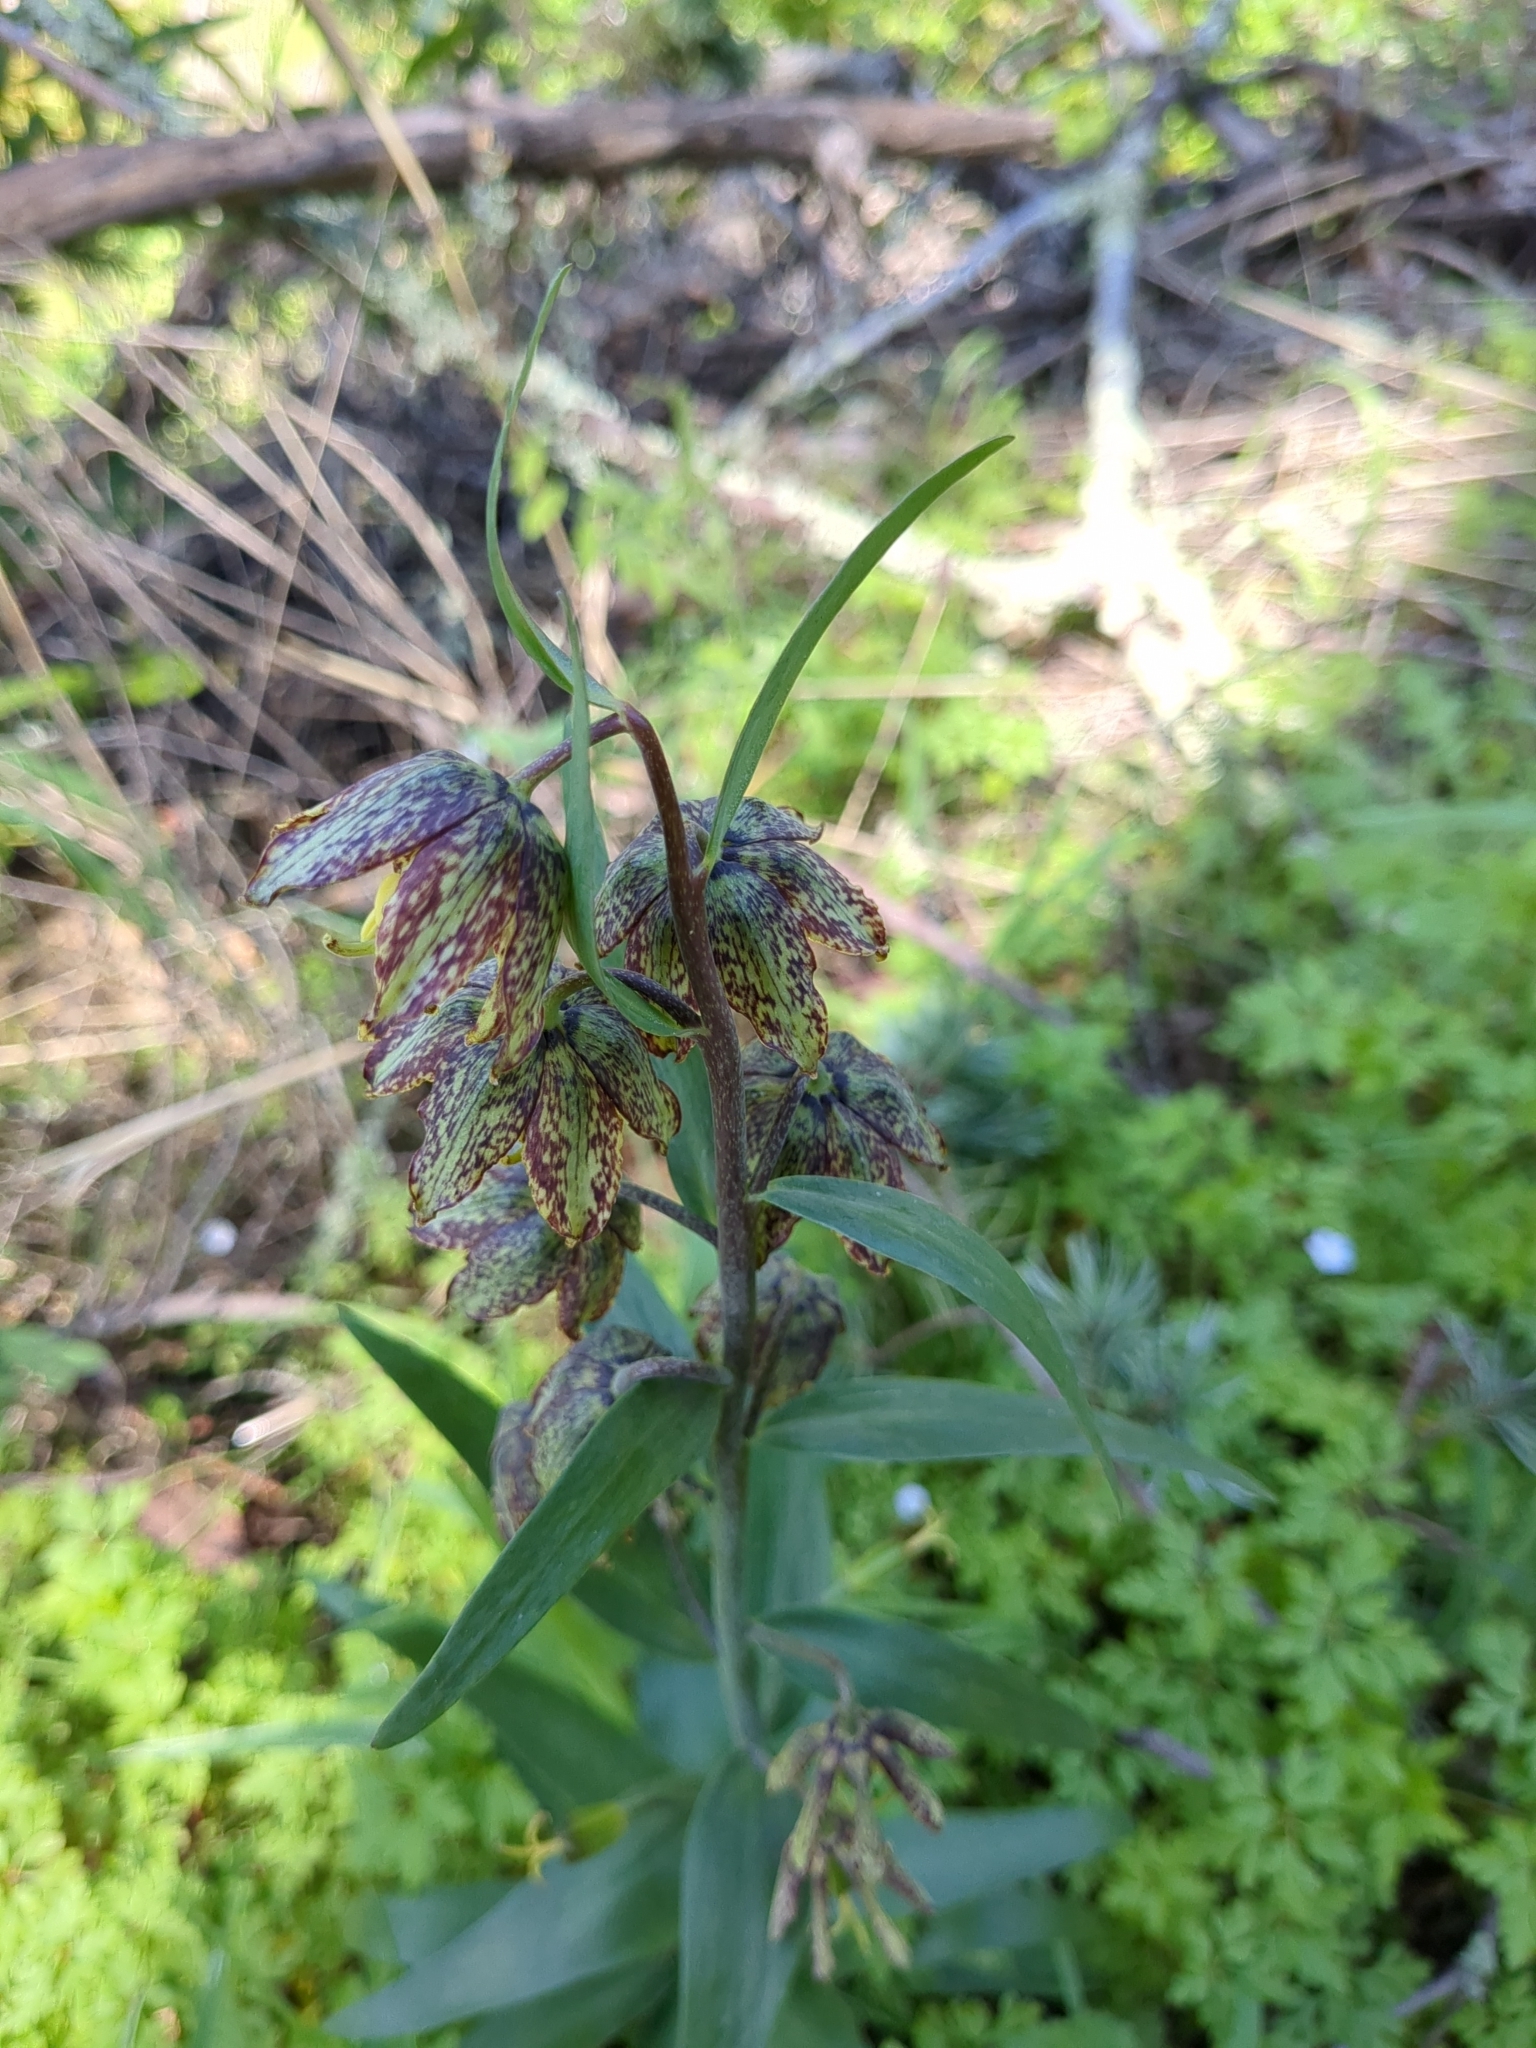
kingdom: Plantae
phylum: Tracheophyta
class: Liliopsida
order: Liliales
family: Liliaceae
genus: Fritillaria
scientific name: Fritillaria affinis
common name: Ojai fritillary
